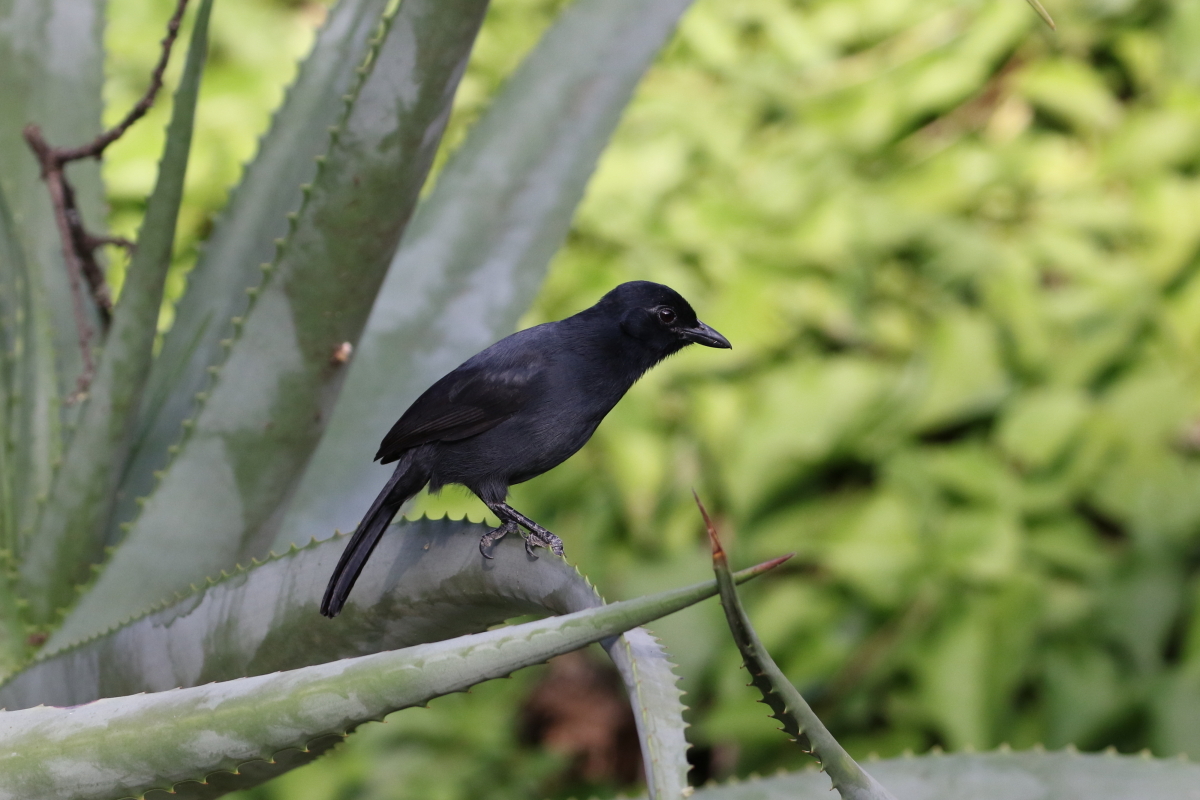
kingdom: Animalia
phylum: Chordata
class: Aves
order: Passeriformes
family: Malaconotidae
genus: Laniarius
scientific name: Laniarius funebris
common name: Slate-colored boubou
